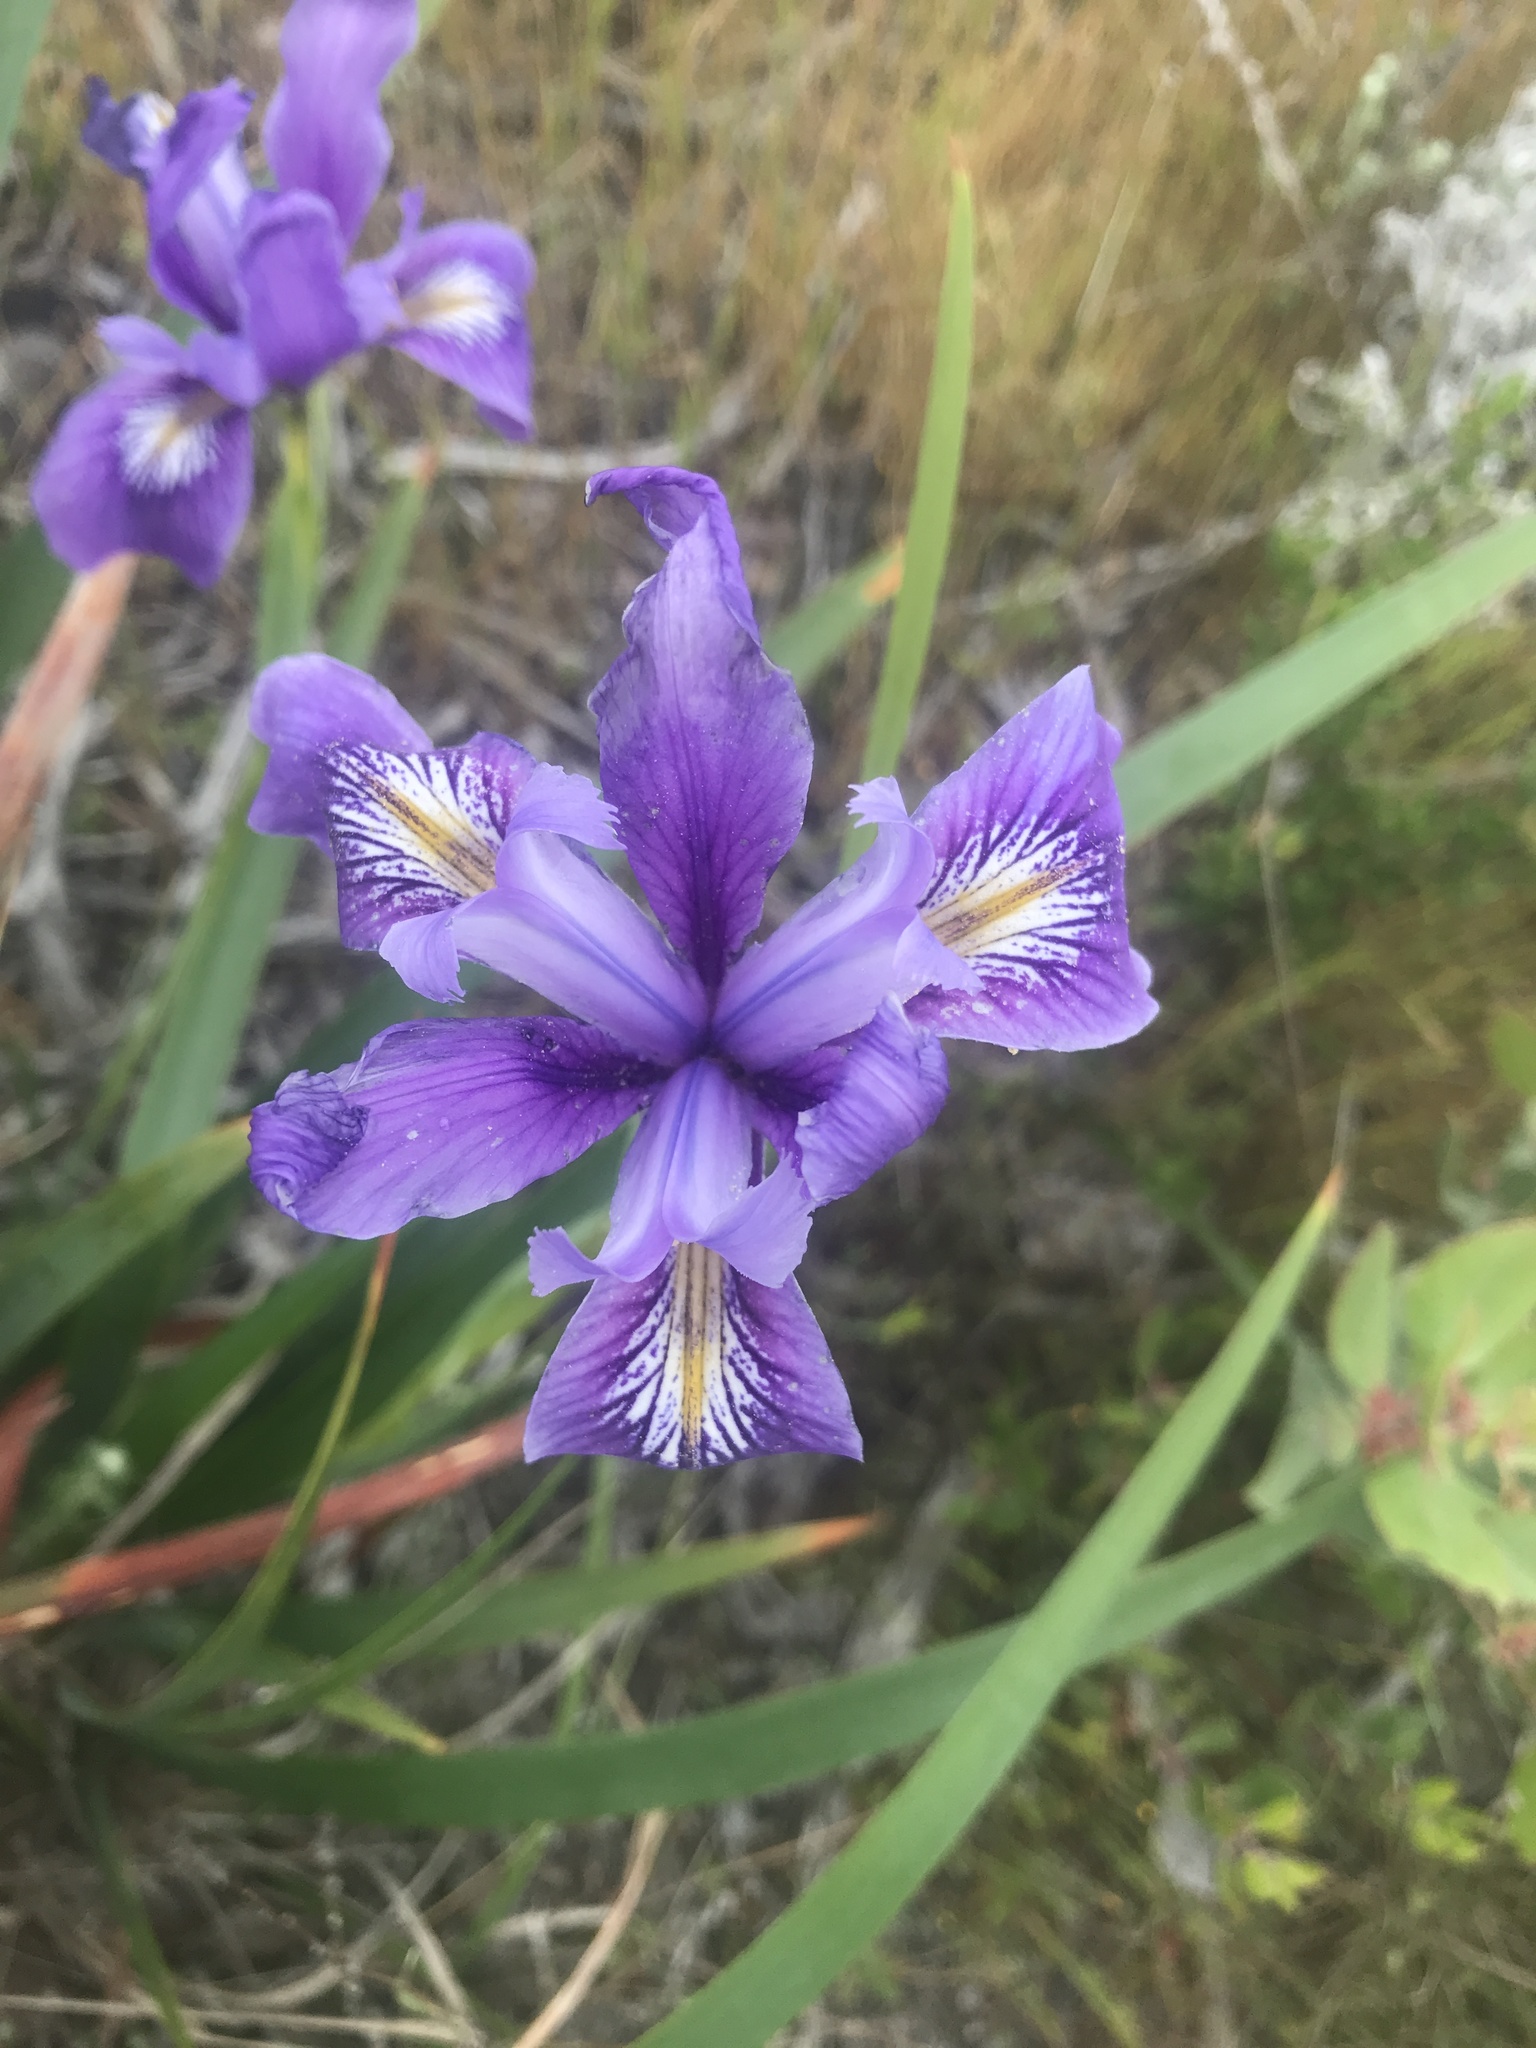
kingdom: Plantae
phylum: Tracheophyta
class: Liliopsida
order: Asparagales
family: Iridaceae
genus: Iris
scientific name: Iris douglasiana
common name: Marin iris
